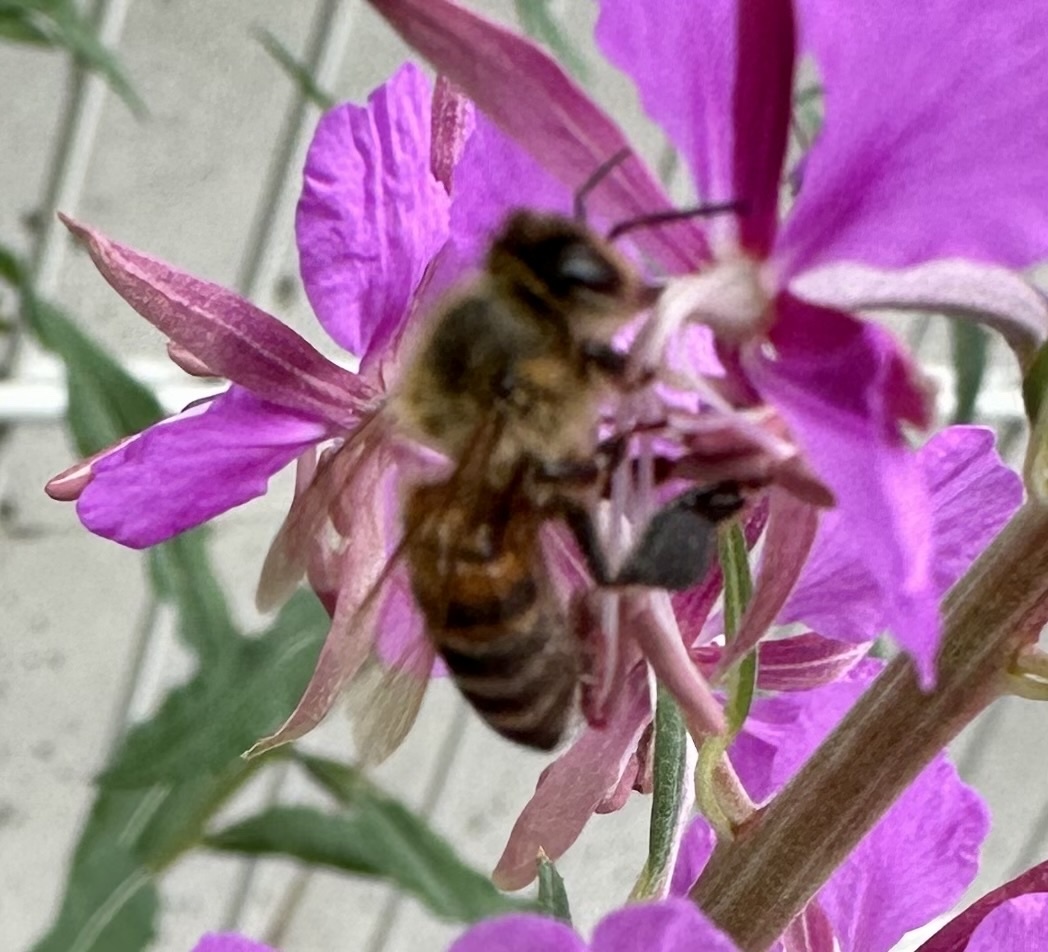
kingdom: Animalia
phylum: Arthropoda
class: Insecta
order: Hymenoptera
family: Apidae
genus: Apis
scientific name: Apis mellifera
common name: Honey bee
